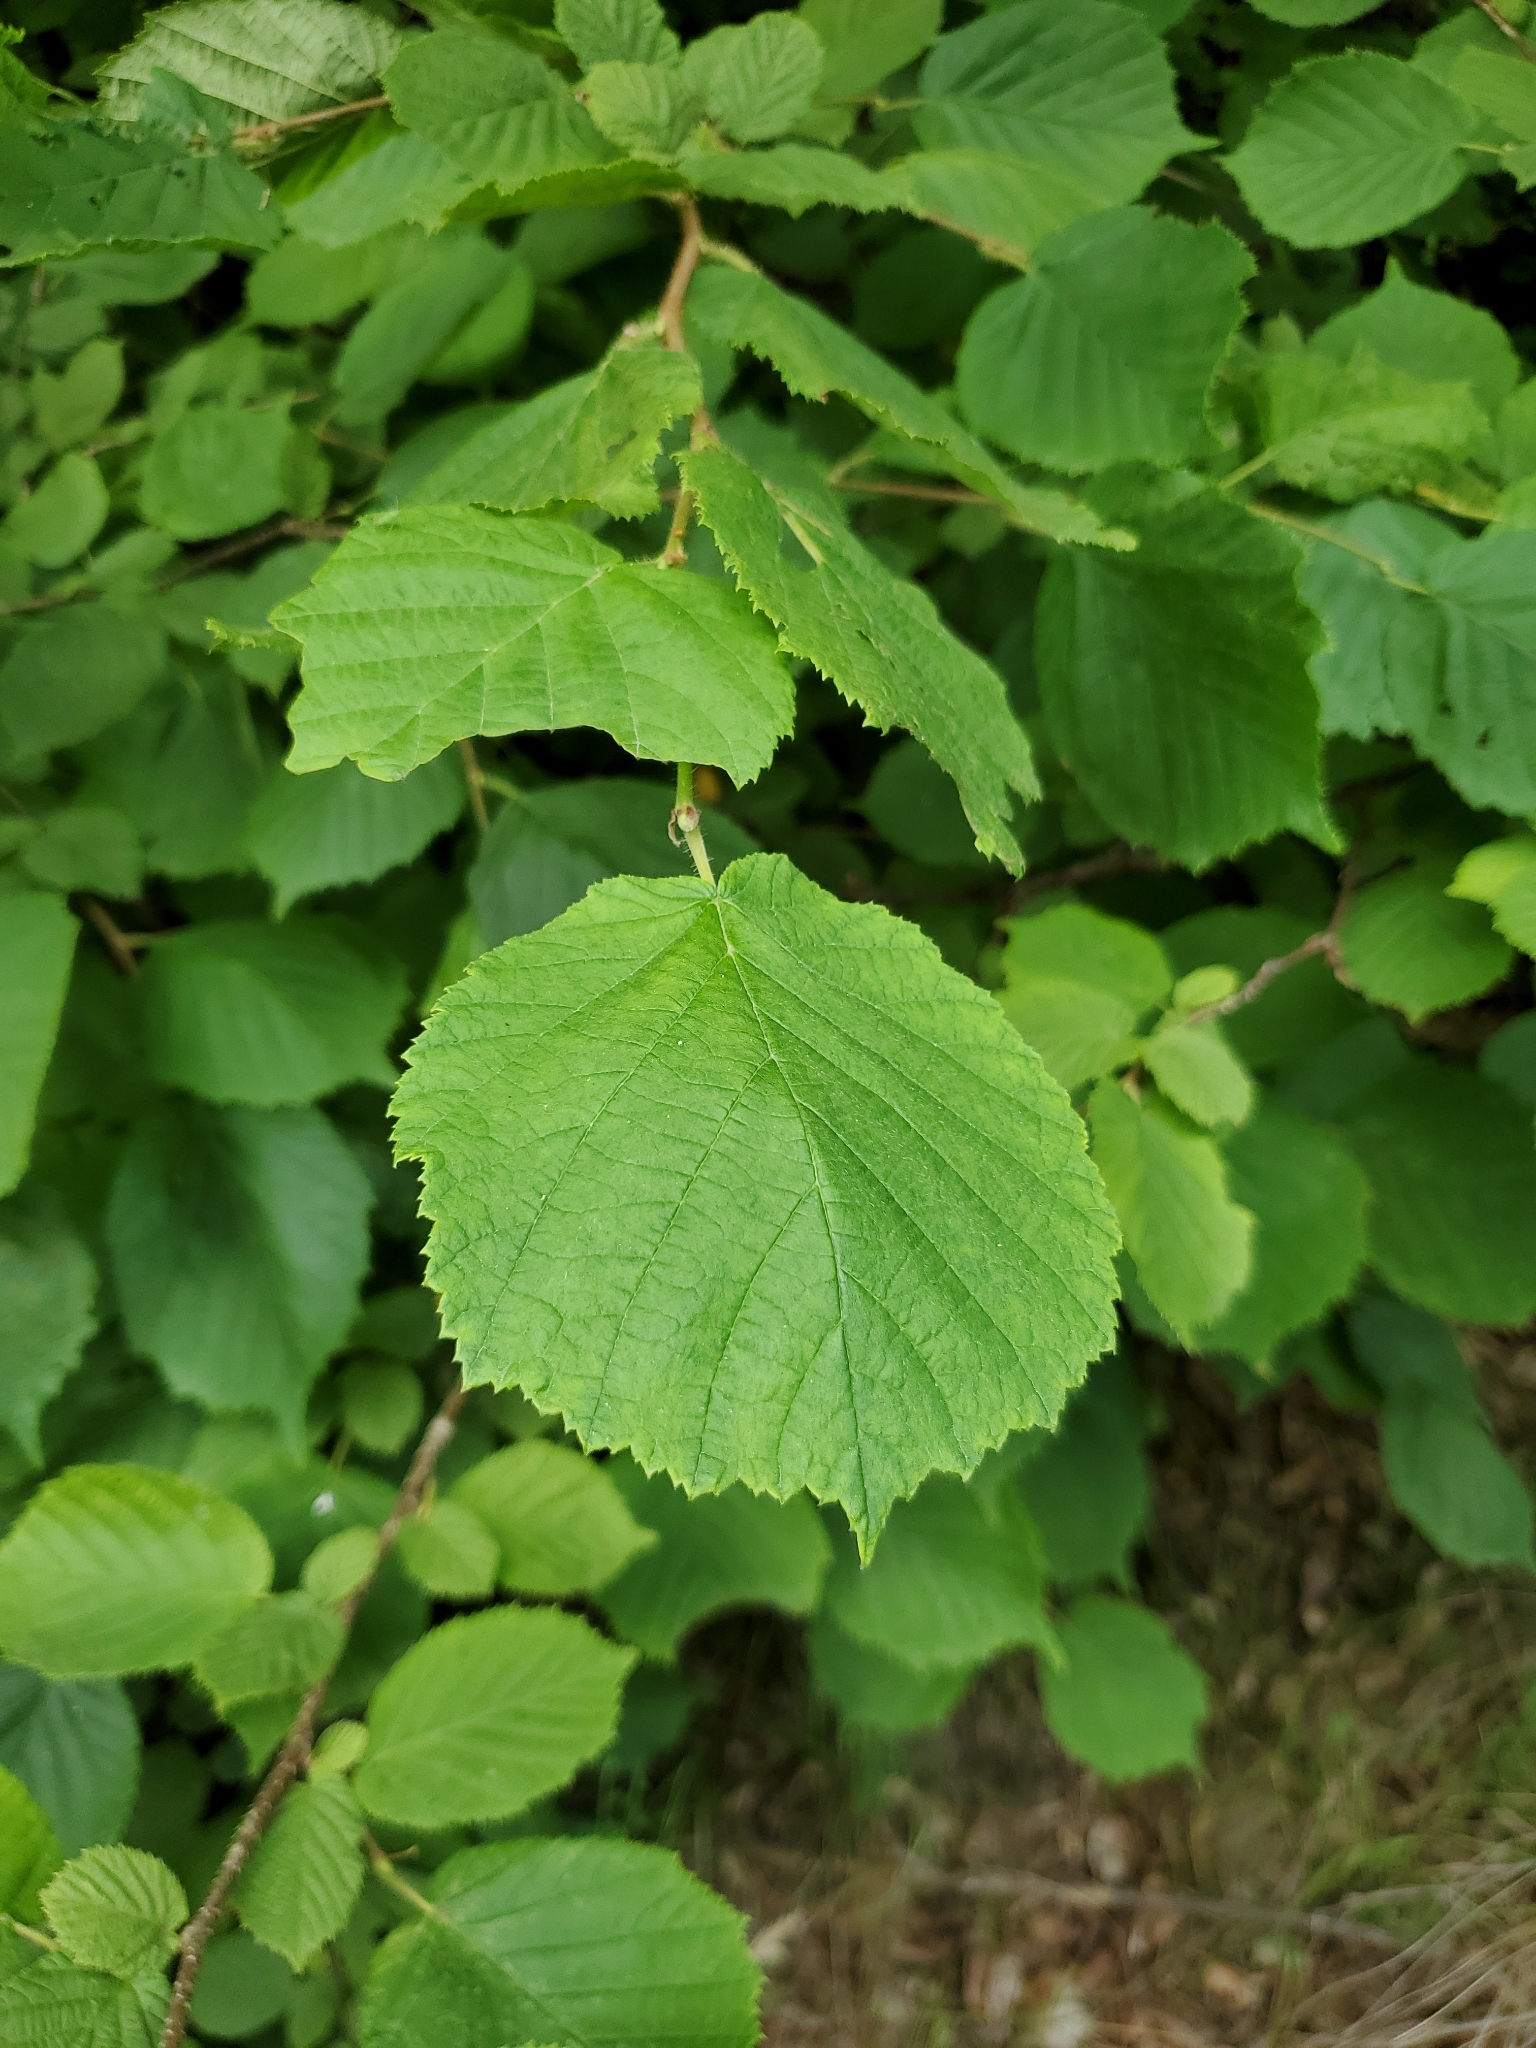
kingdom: Plantae
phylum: Tracheophyta
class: Magnoliopsida
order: Fagales
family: Betulaceae
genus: Corylus
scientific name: Corylus avellana
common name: European hazel
